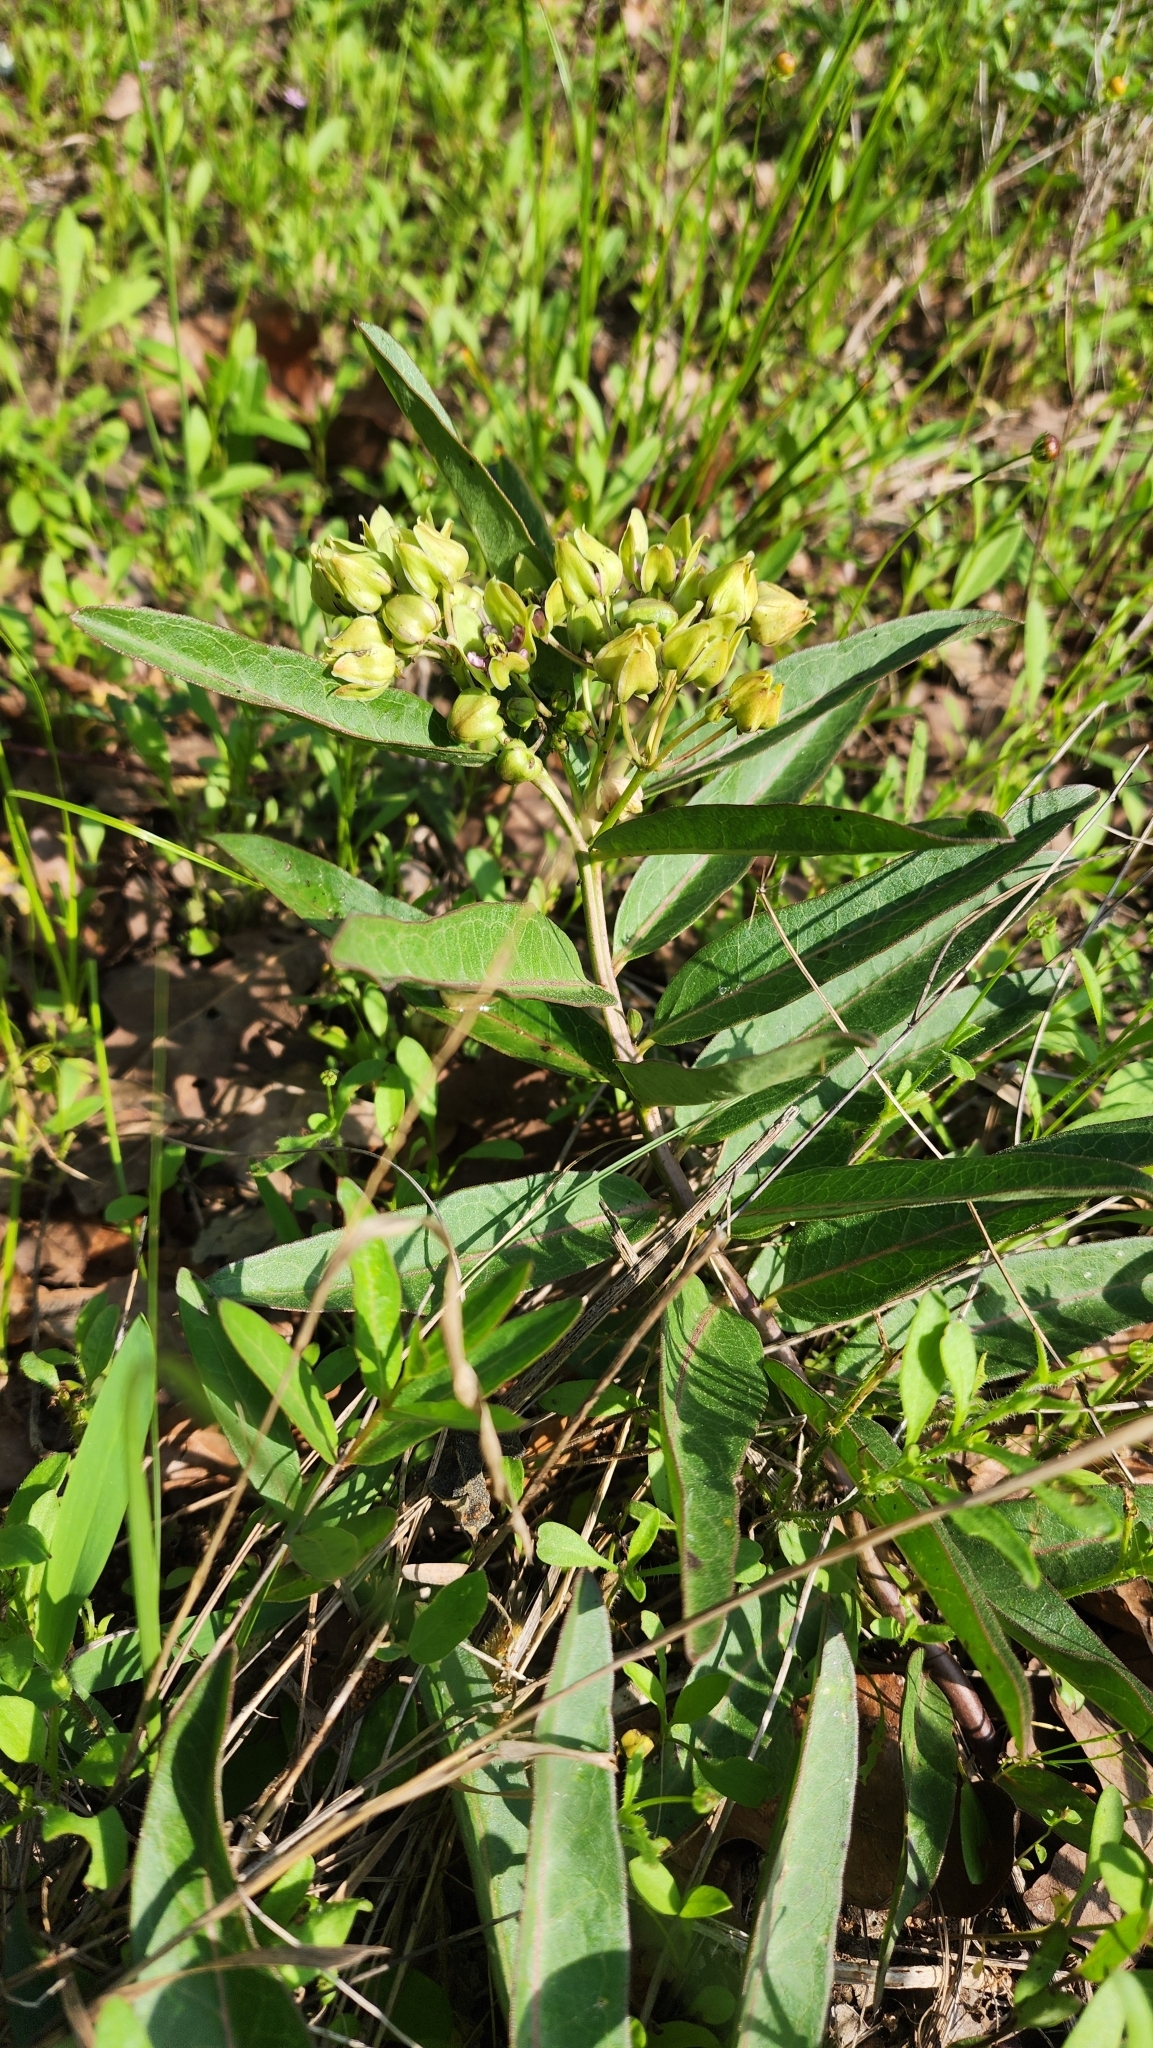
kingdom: Plantae
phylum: Tracheophyta
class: Magnoliopsida
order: Gentianales
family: Apocynaceae
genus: Asclepias
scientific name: Asclepias viridis
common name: Antelope-horns
